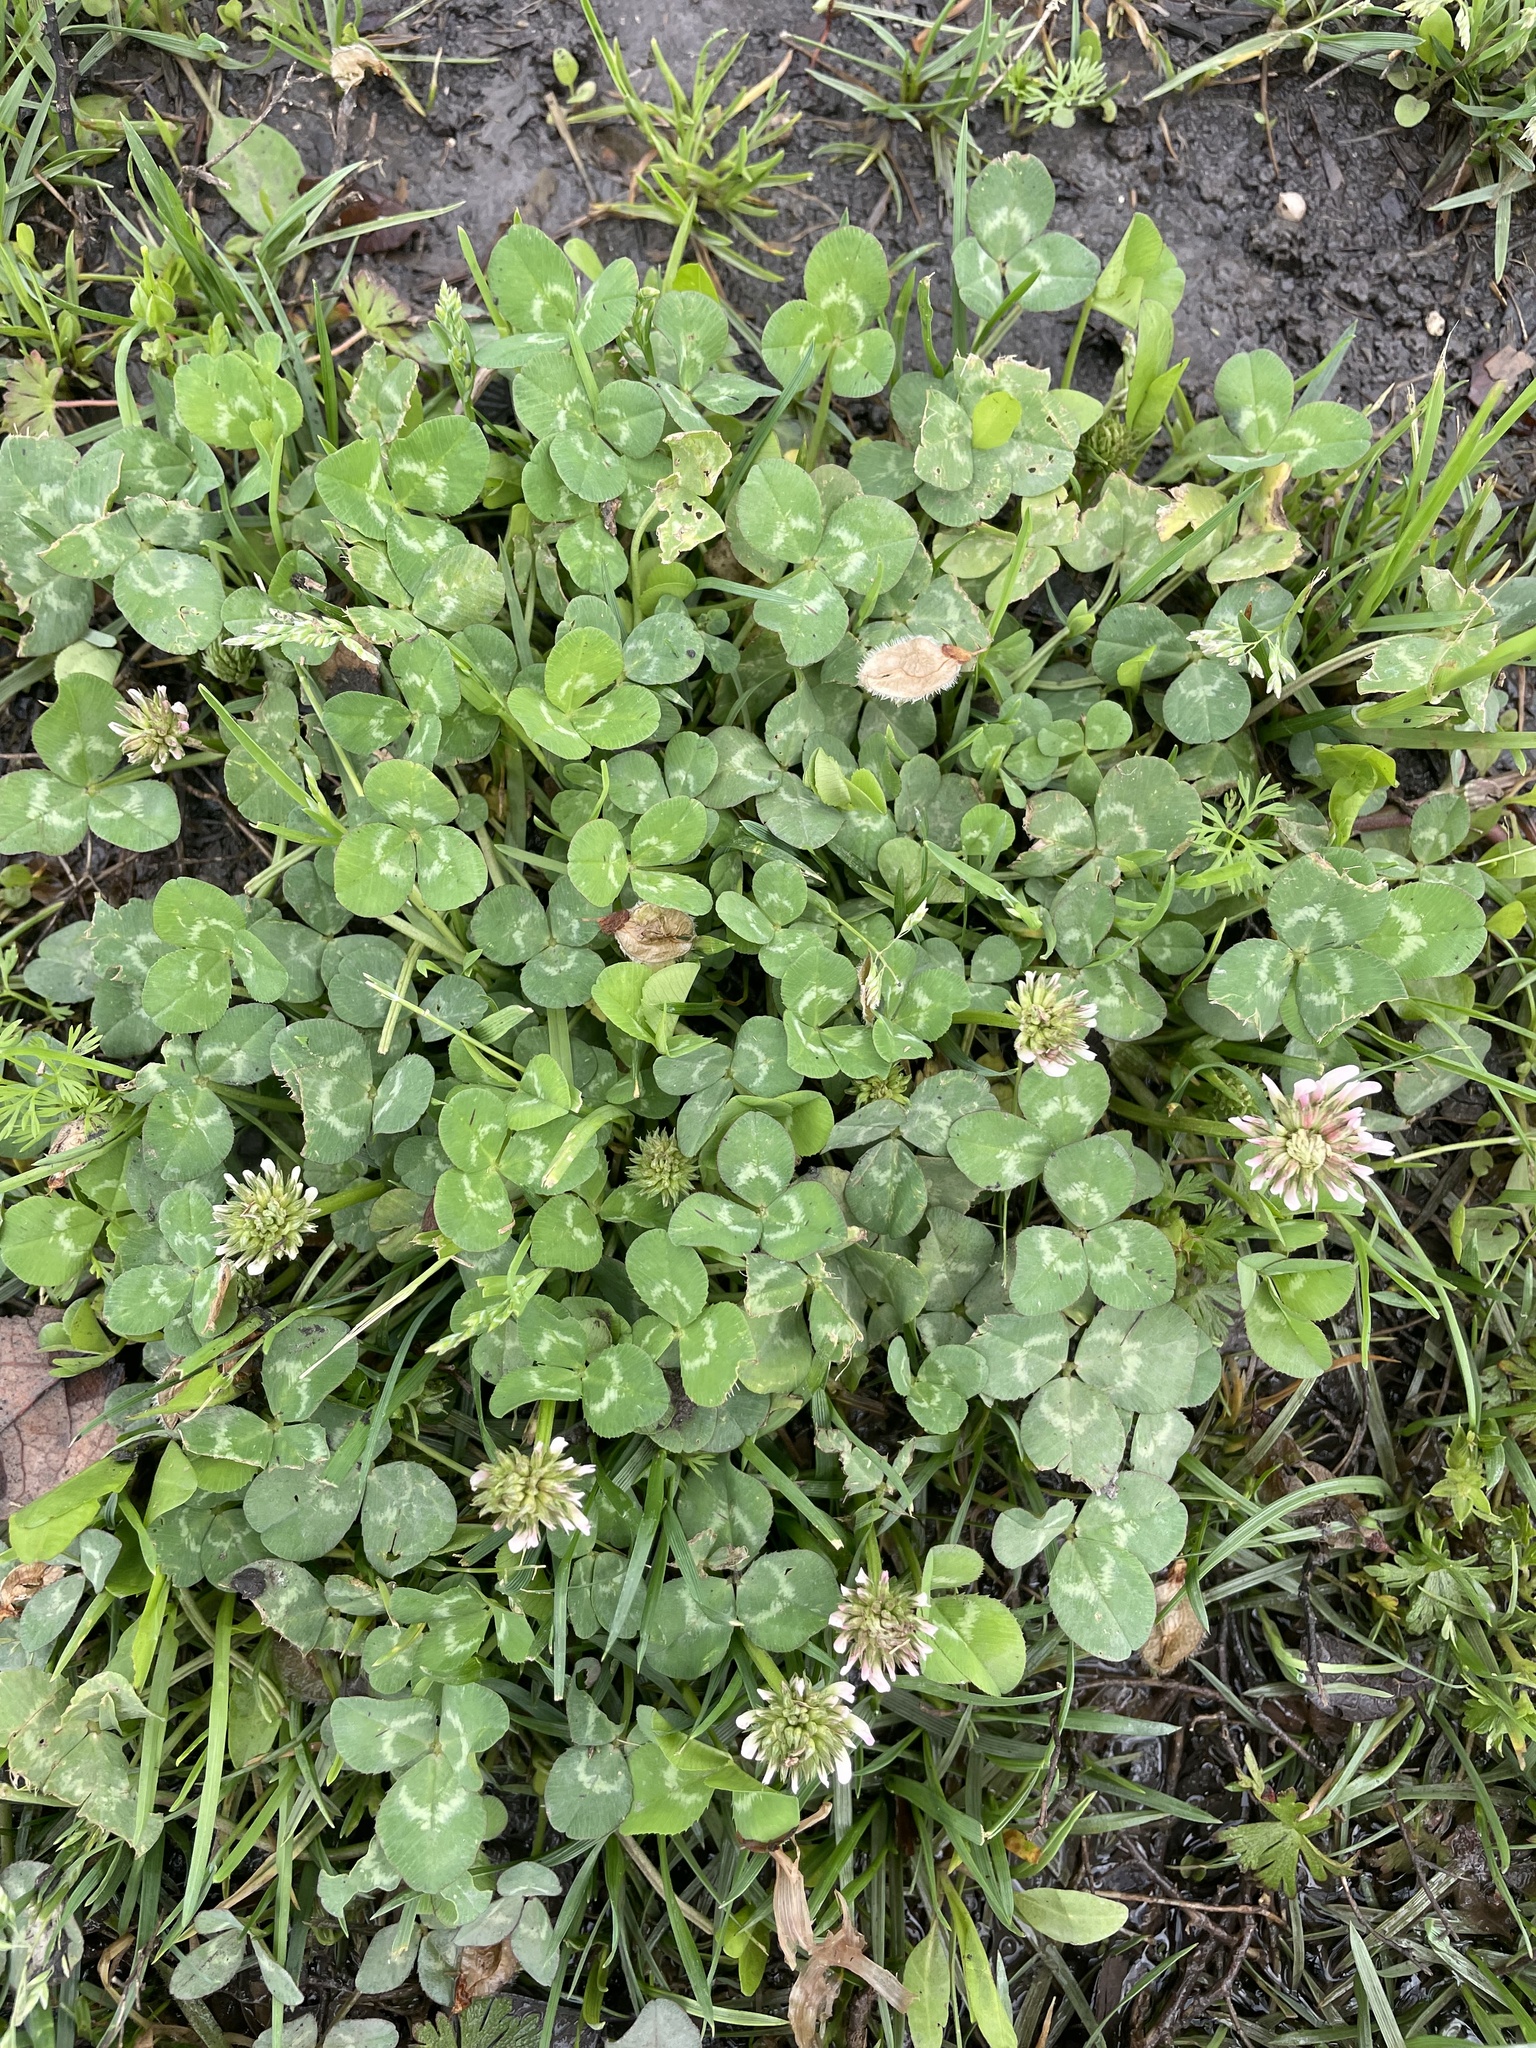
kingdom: Plantae
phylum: Tracheophyta
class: Magnoliopsida
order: Fabales
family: Fabaceae
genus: Trifolium
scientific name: Trifolium repens
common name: White clover
